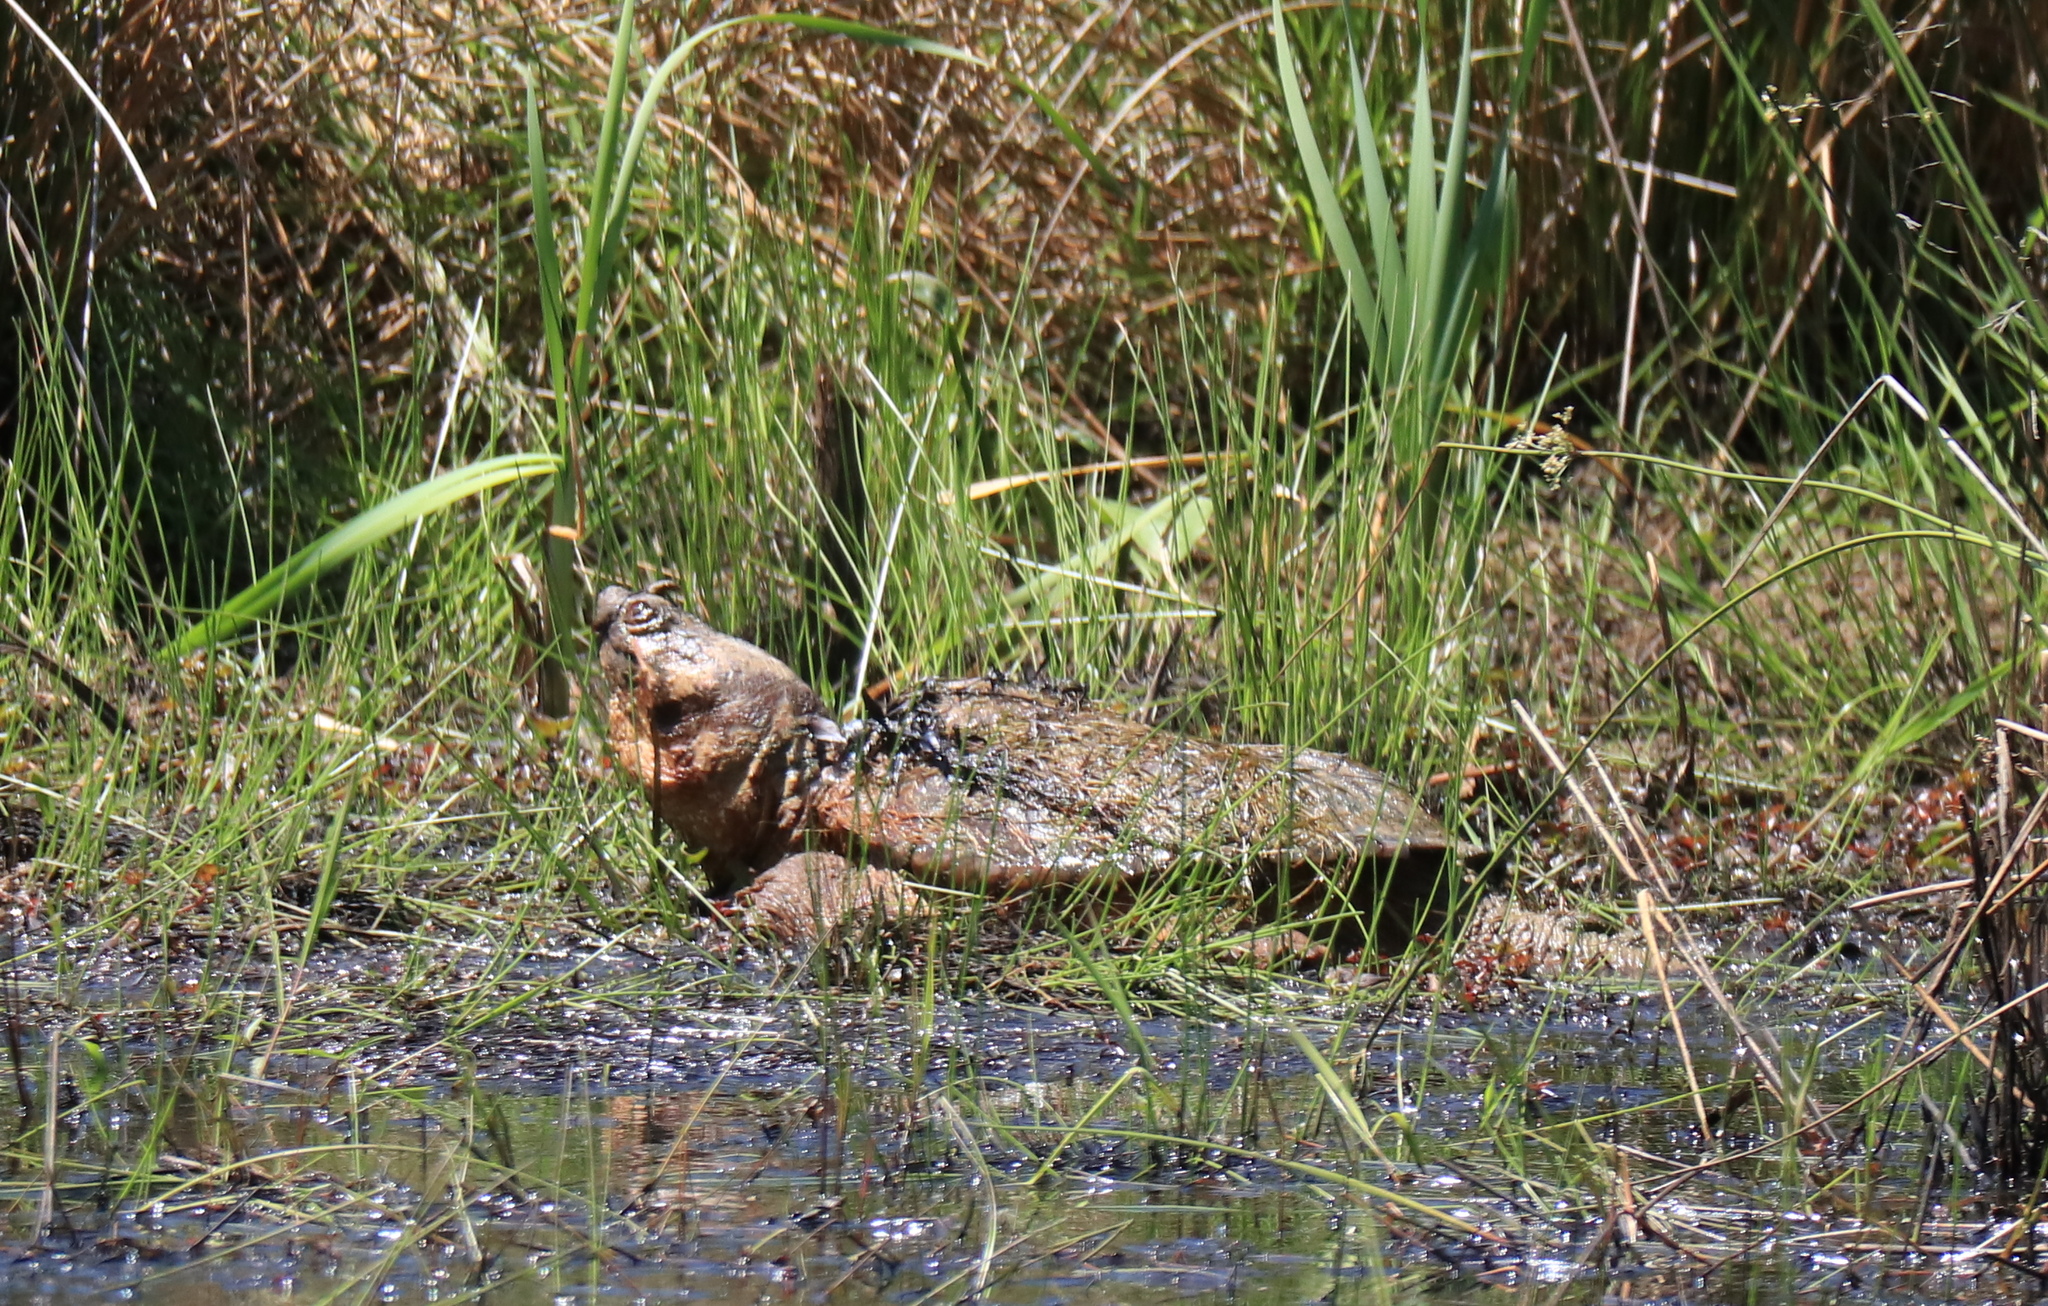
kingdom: Animalia
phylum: Chordata
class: Testudines
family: Chelydridae
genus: Chelydra
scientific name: Chelydra serpentina
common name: Common snapping turtle
